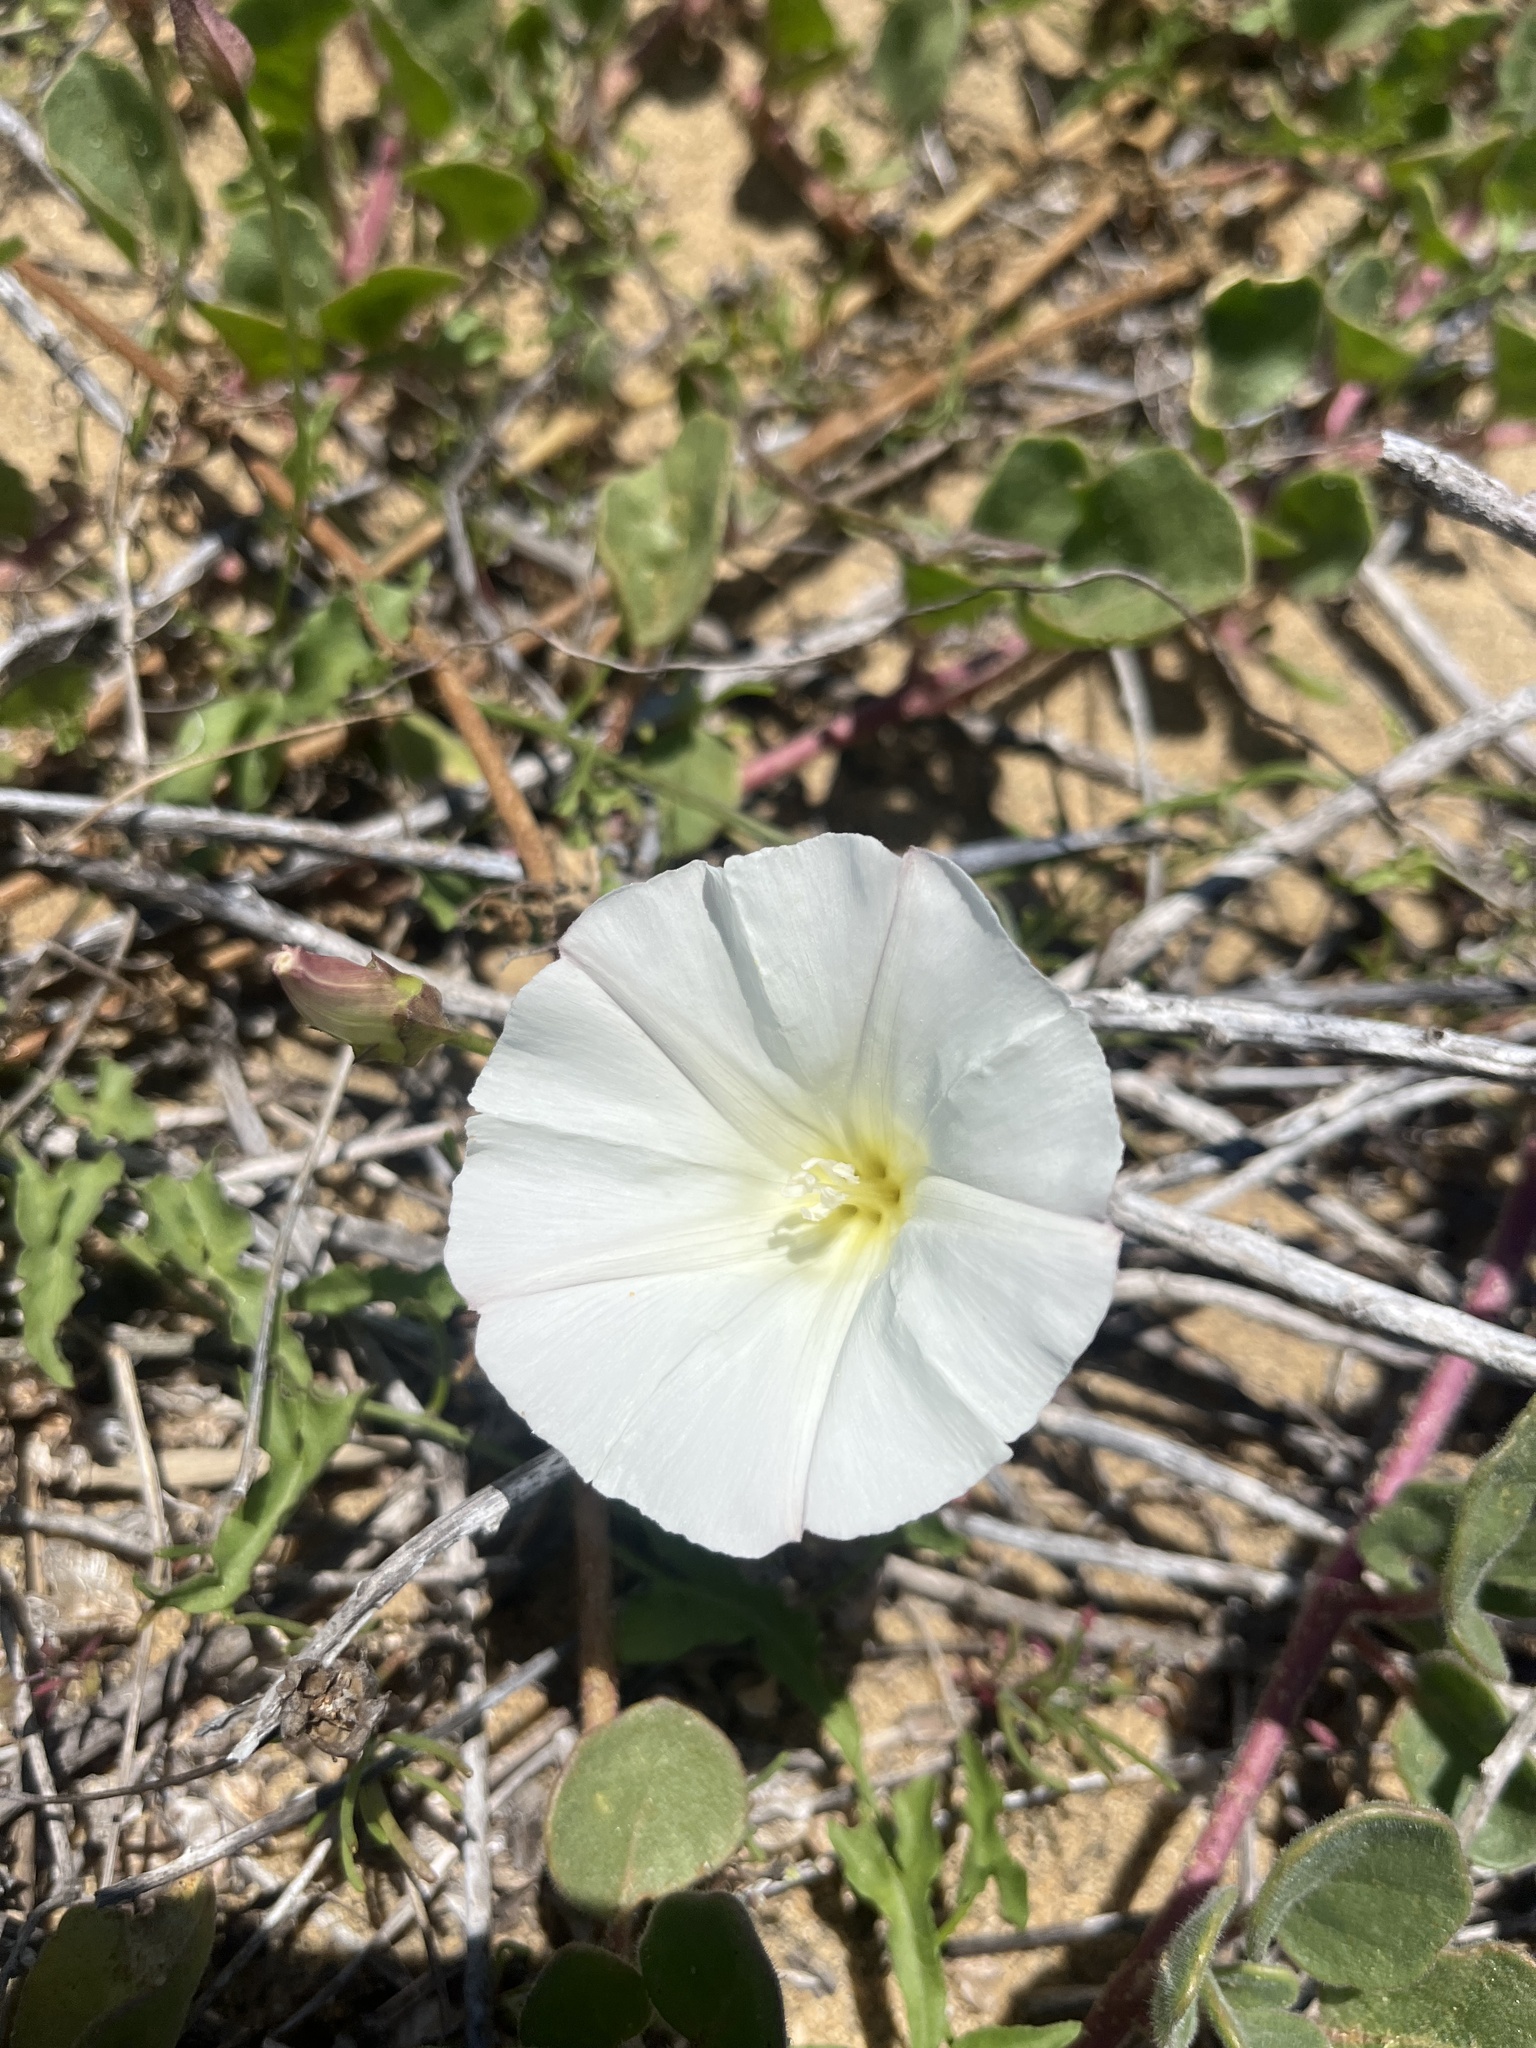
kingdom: Plantae
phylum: Tracheophyta
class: Magnoliopsida
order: Solanales
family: Convolvulaceae
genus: Calystegia
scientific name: Calystegia macrostegia
